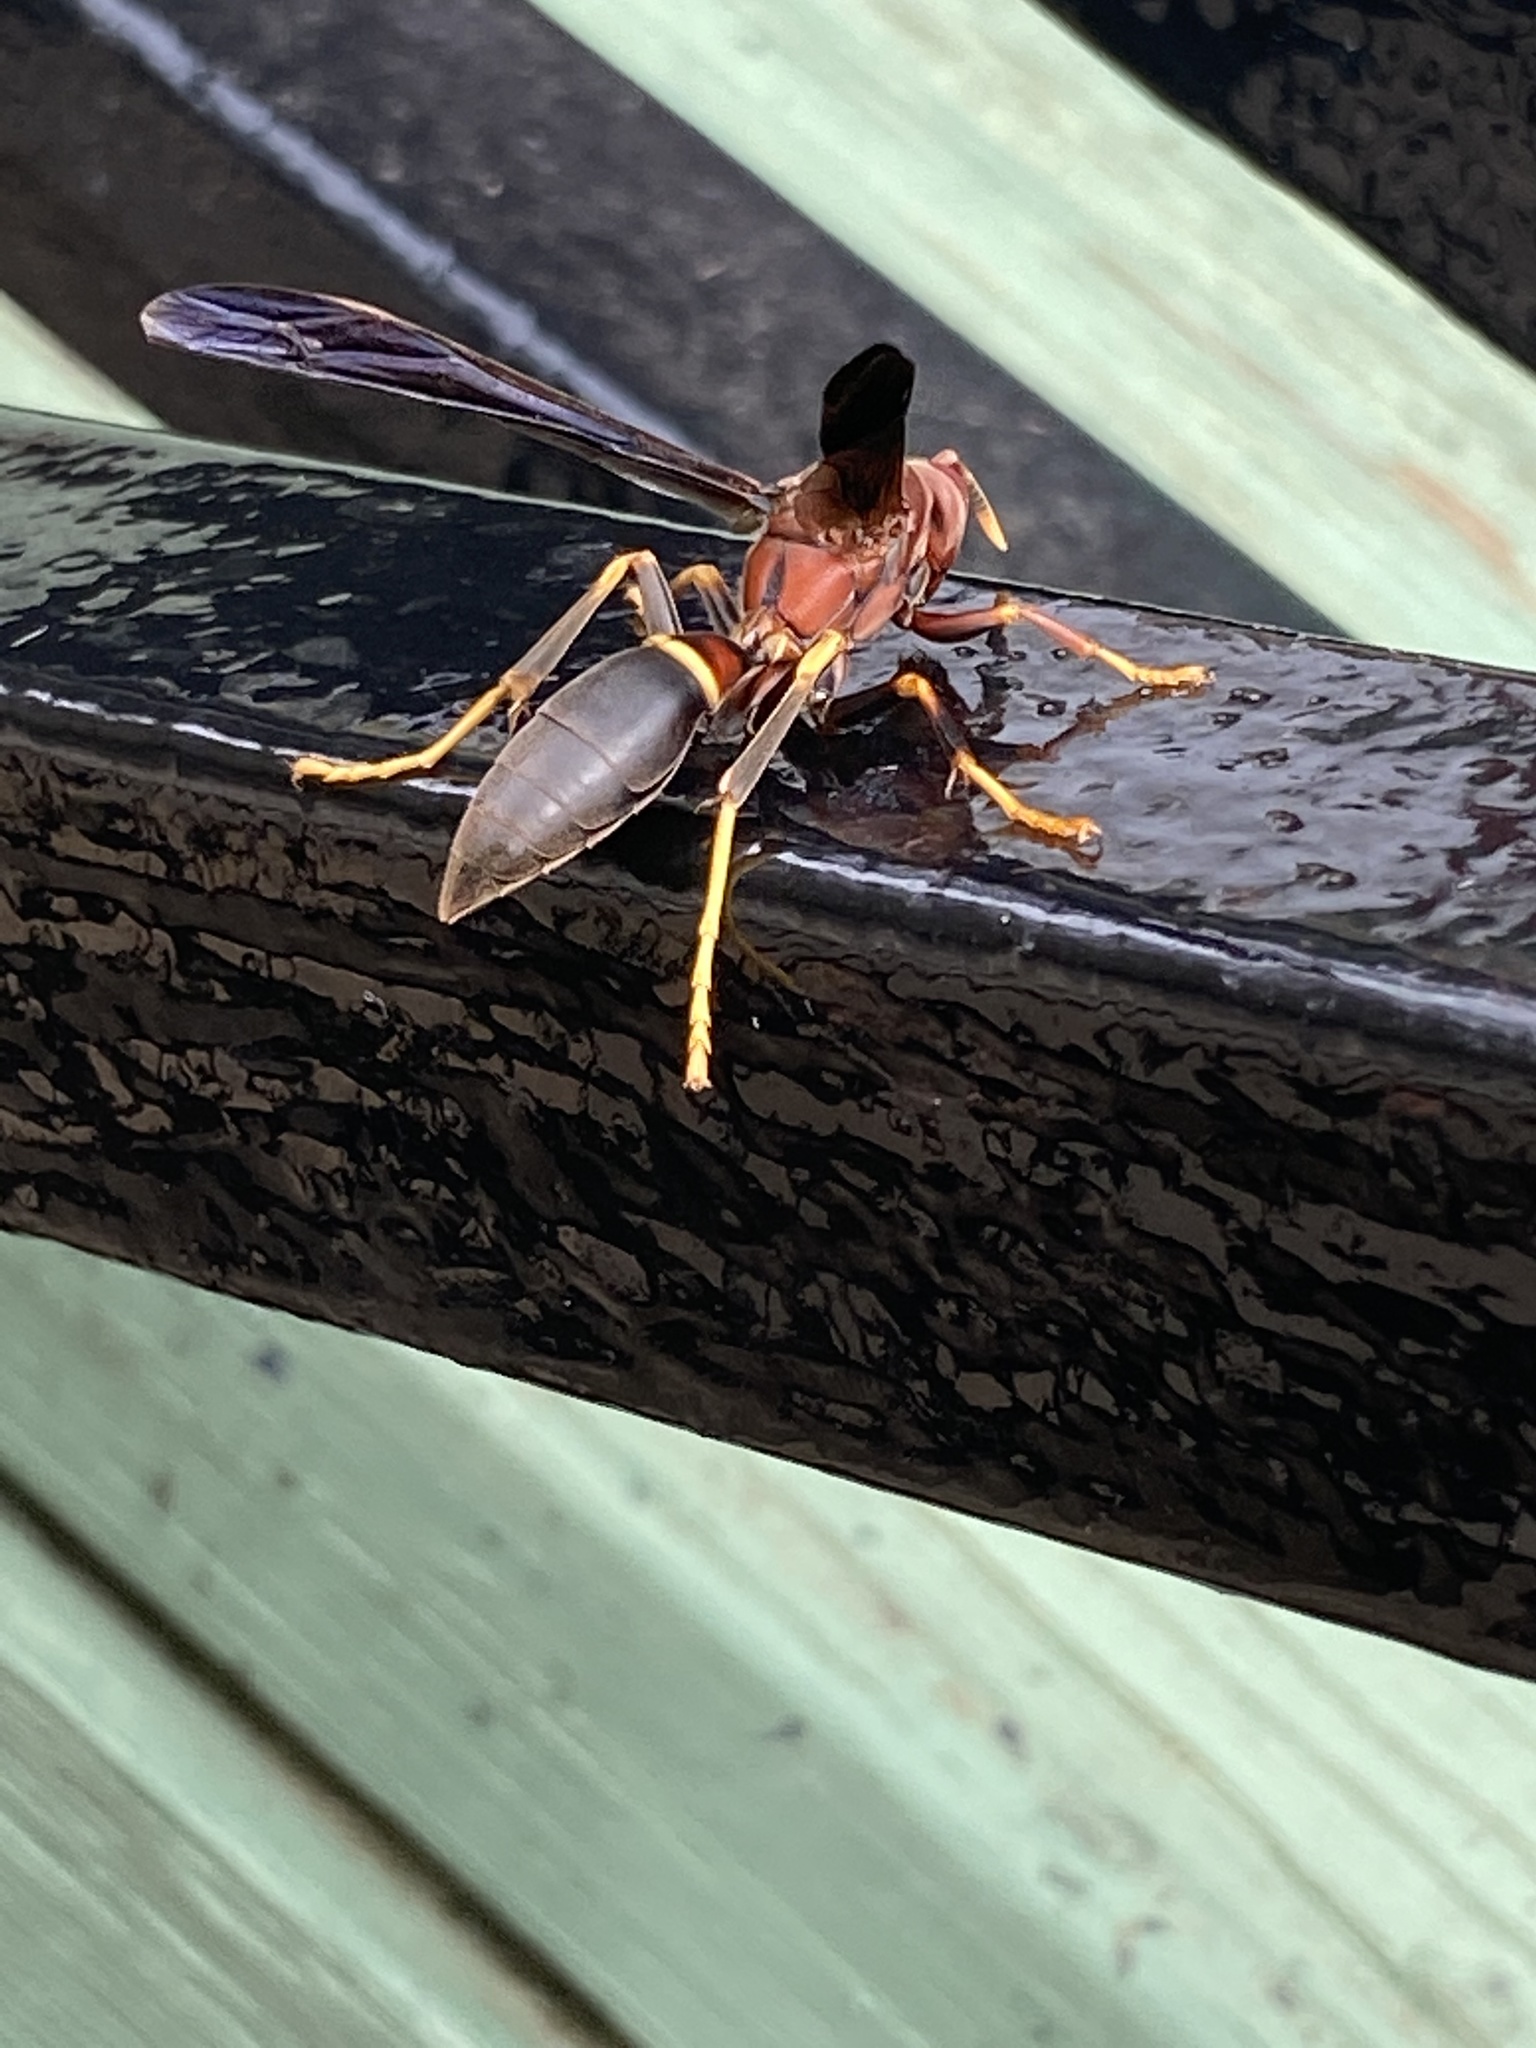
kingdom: Animalia
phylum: Arthropoda
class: Insecta
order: Hymenoptera
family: Eumenidae
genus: Polistes
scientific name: Polistes annularis
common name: Ringed paper wasp
